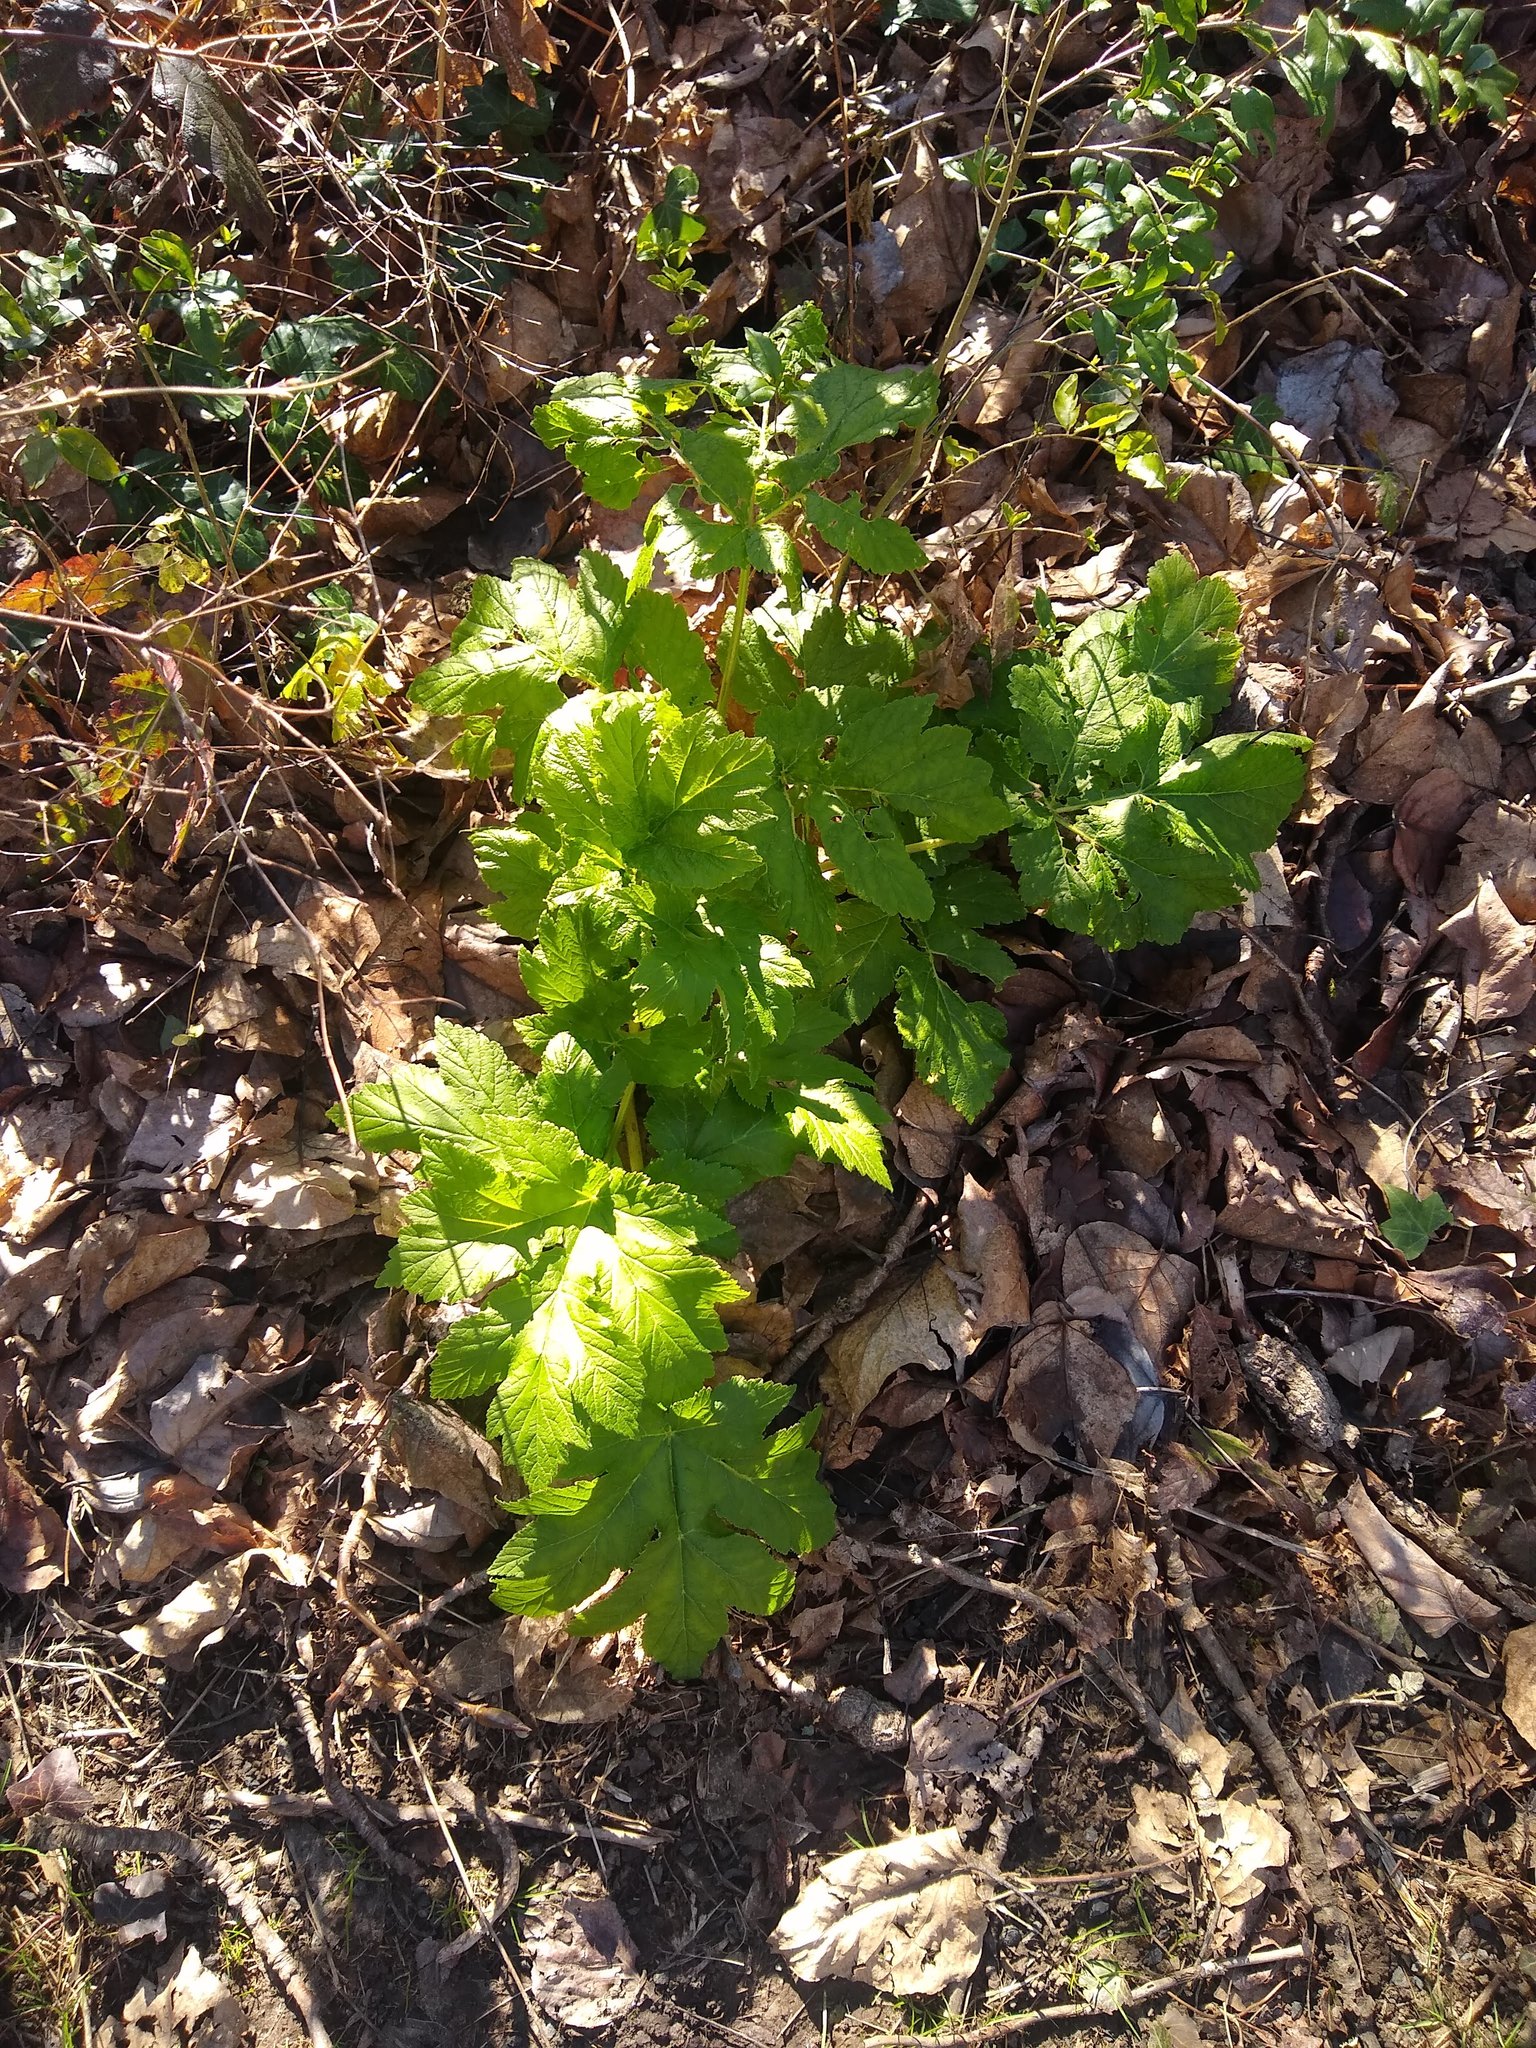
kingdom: Plantae
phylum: Tracheophyta
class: Magnoliopsida
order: Apiales
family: Apiaceae
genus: Heracleum
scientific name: Heracleum maximum
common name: American cow parsnip
